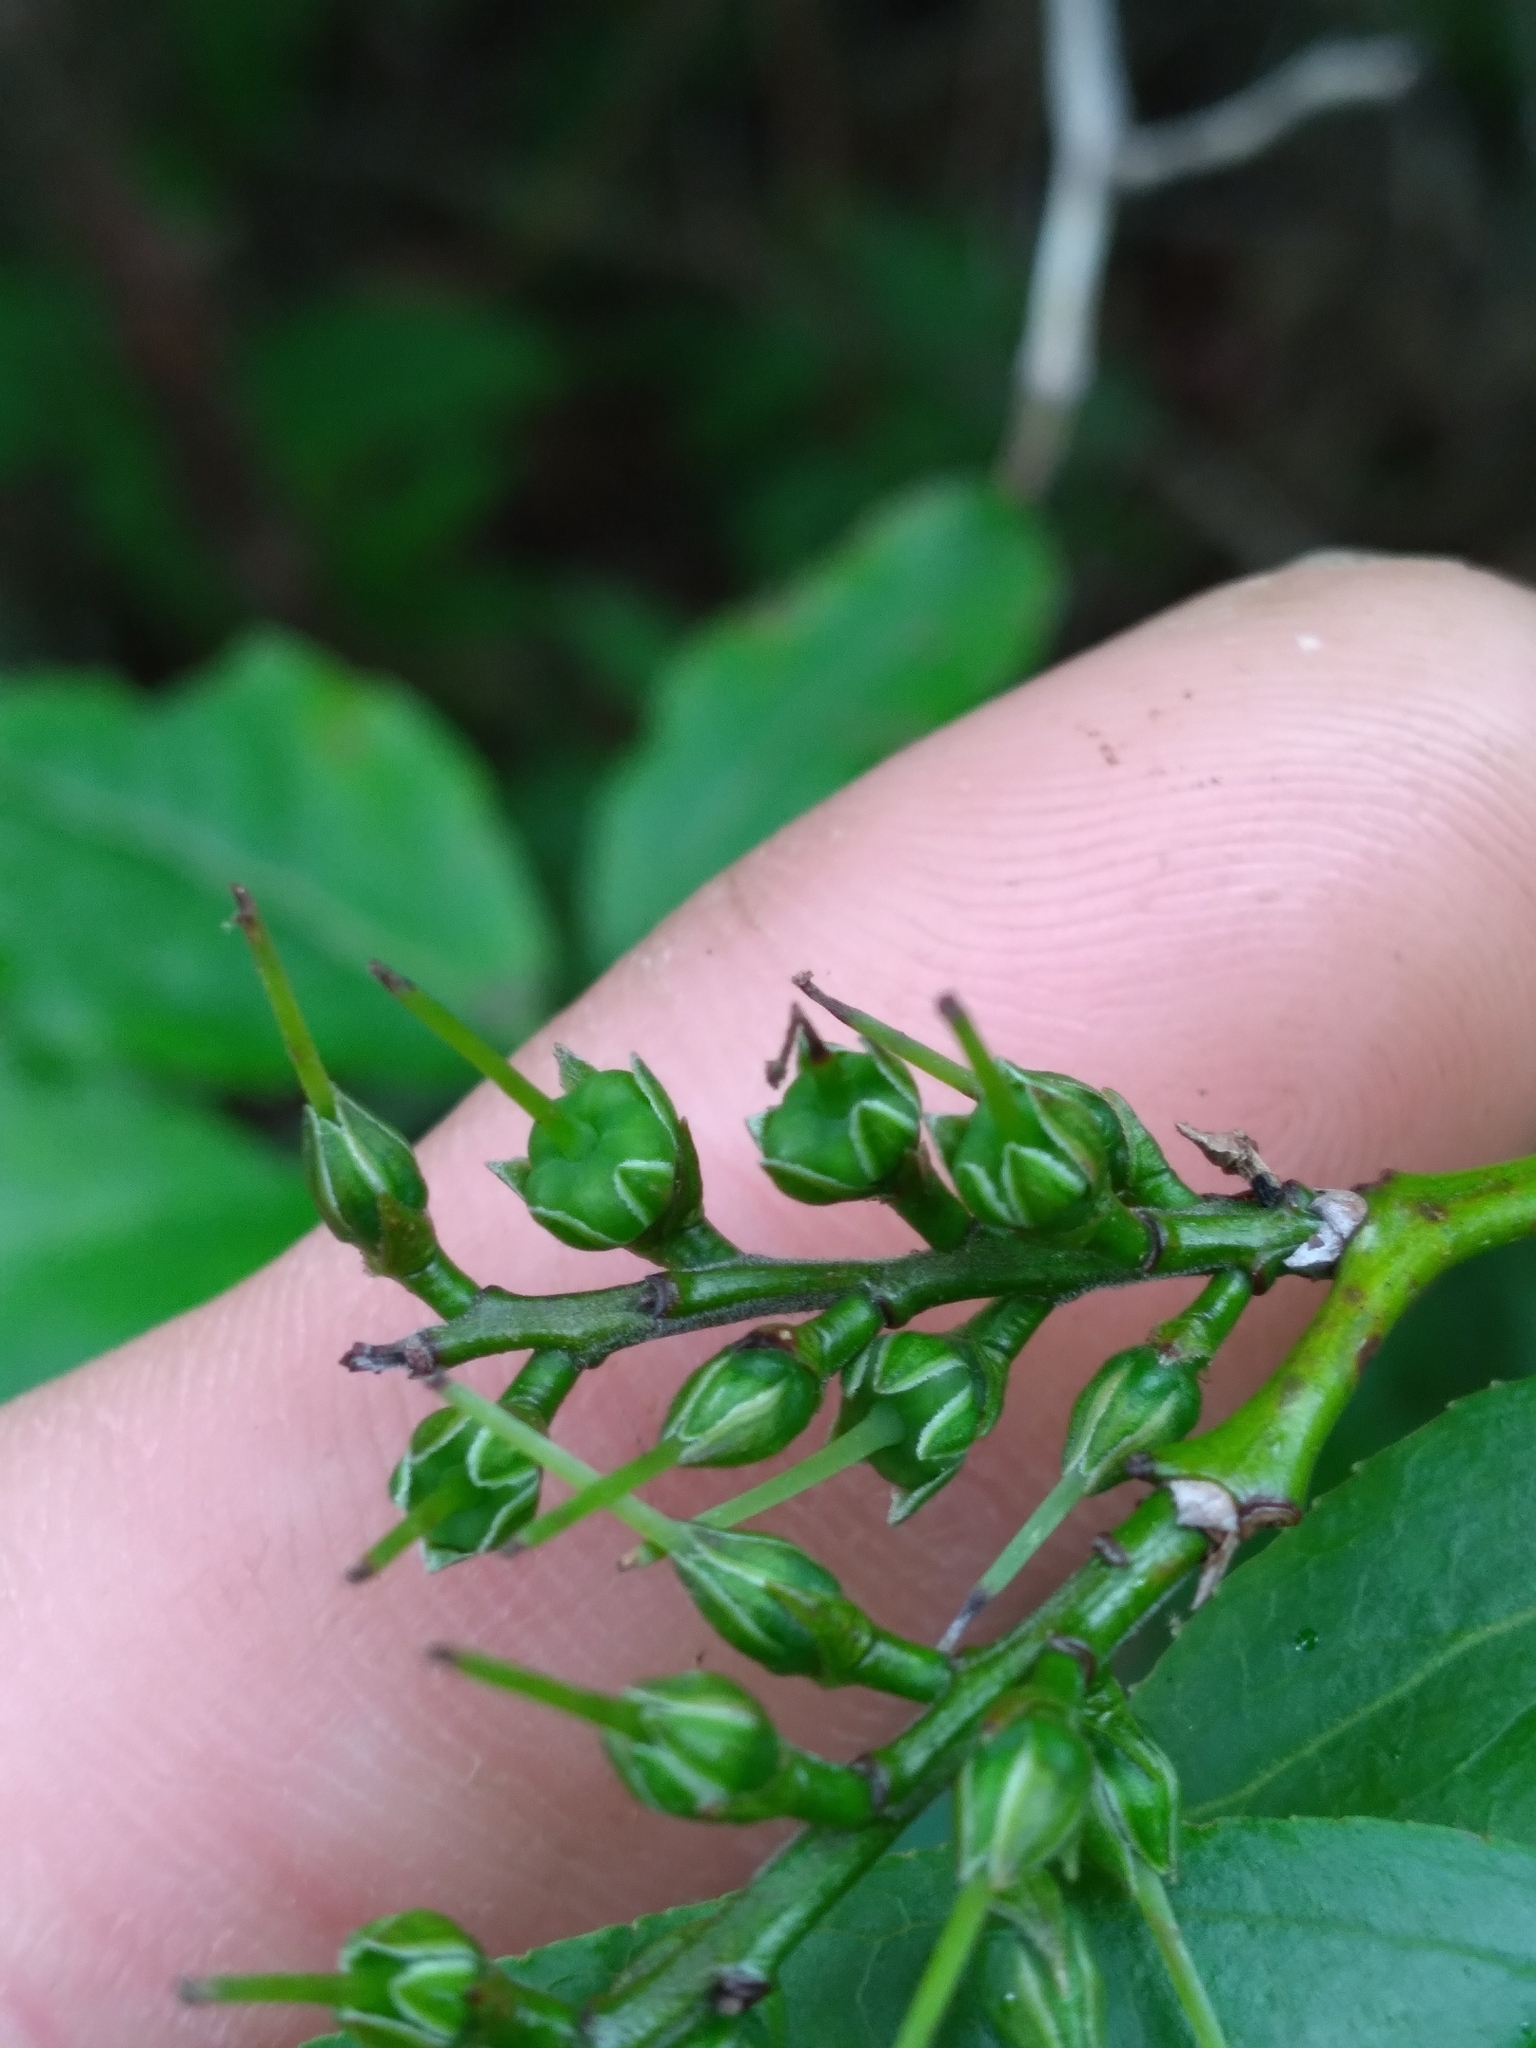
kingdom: Plantae
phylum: Tracheophyta
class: Magnoliopsida
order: Ericales
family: Ericaceae
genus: Eubotrys
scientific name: Eubotrys recurva
